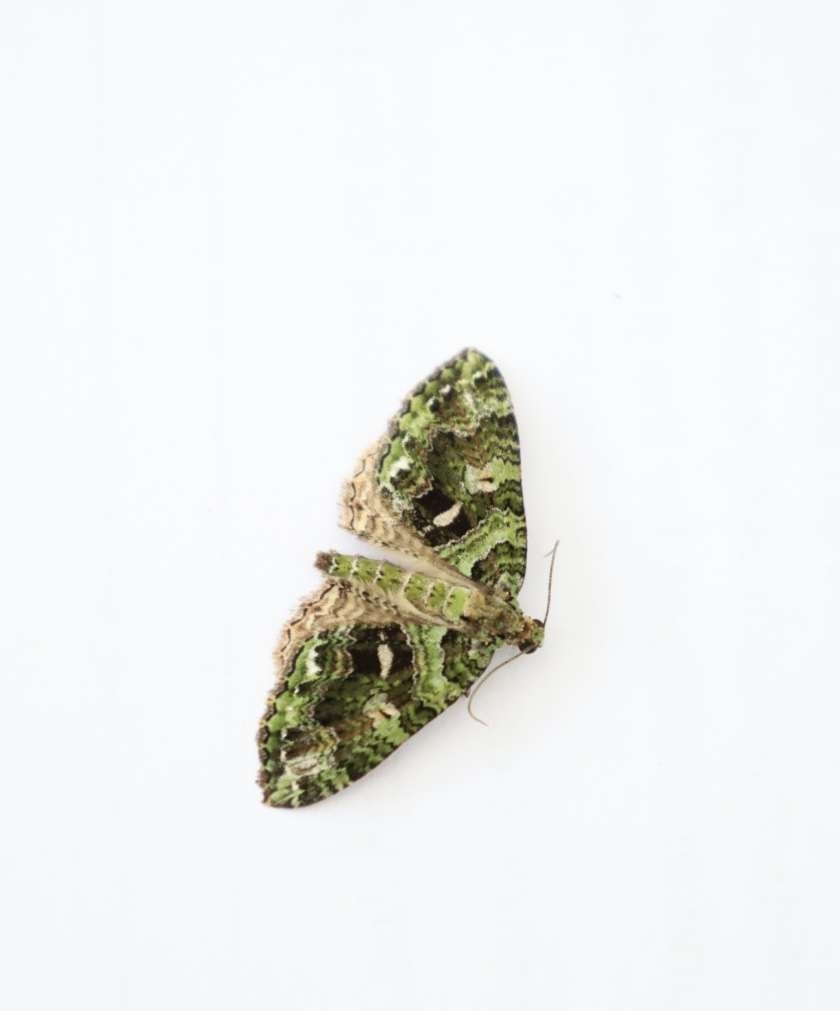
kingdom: Animalia
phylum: Arthropoda
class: Insecta
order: Lepidoptera
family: Geometridae
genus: Austrocidaria
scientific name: Austrocidaria similata
